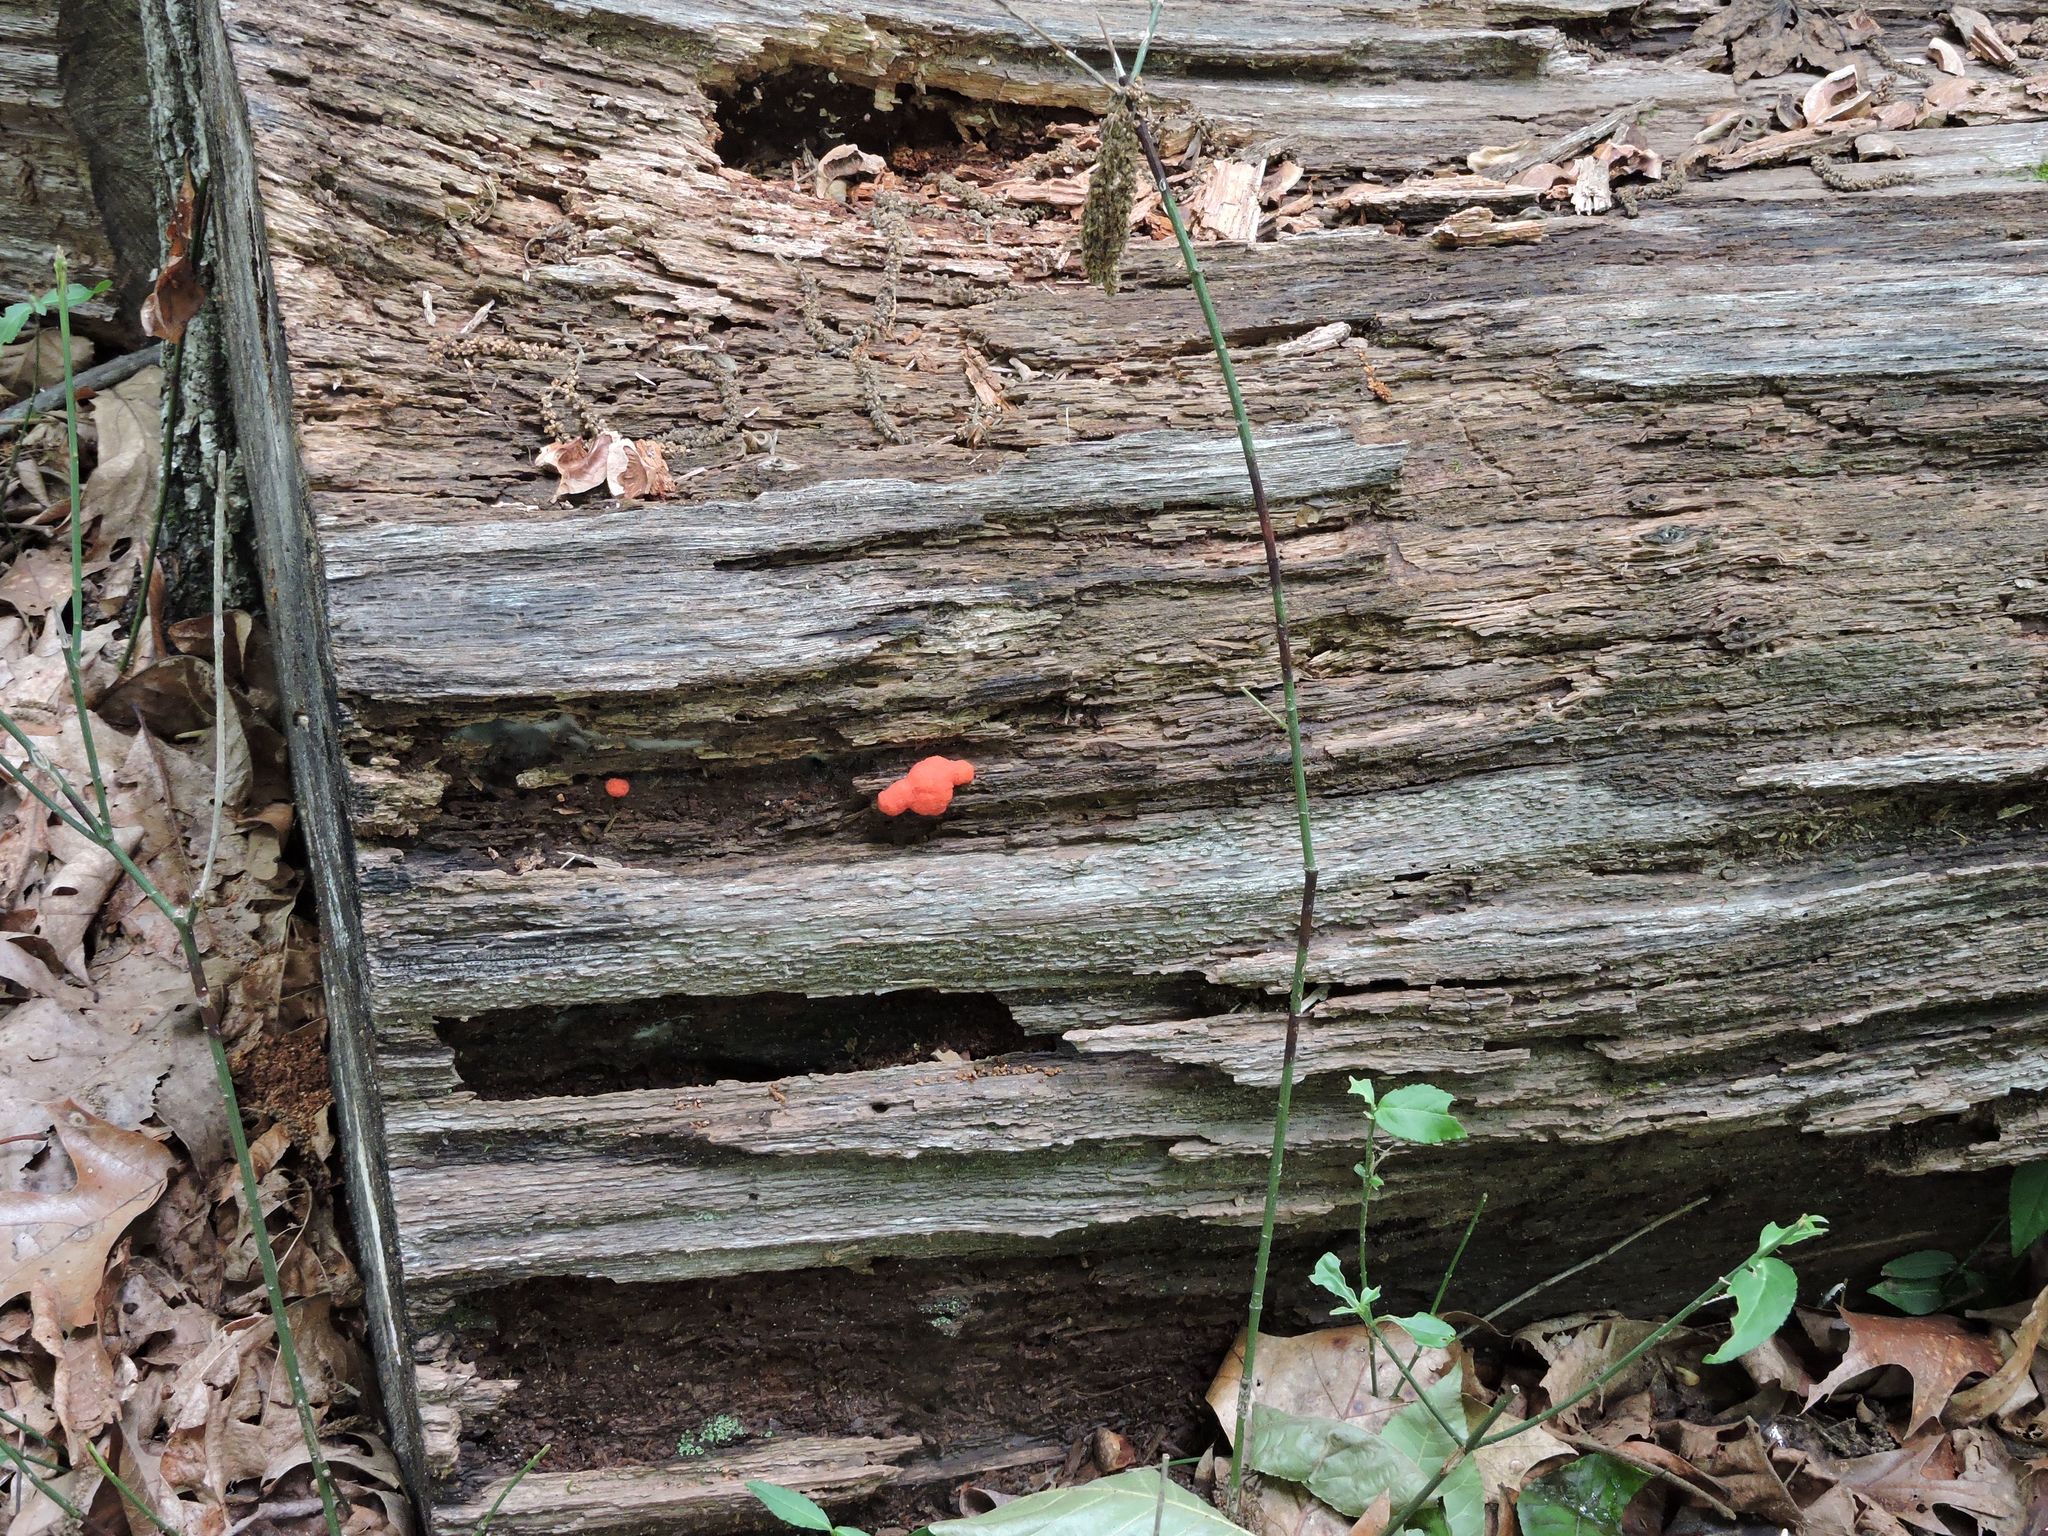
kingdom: Protozoa
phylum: Mycetozoa
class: Myxomycetes
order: Cribrariales
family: Tubiferaceae
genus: Tubifera
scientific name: Tubifera ferruginosa
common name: Red raspberry slime mold
